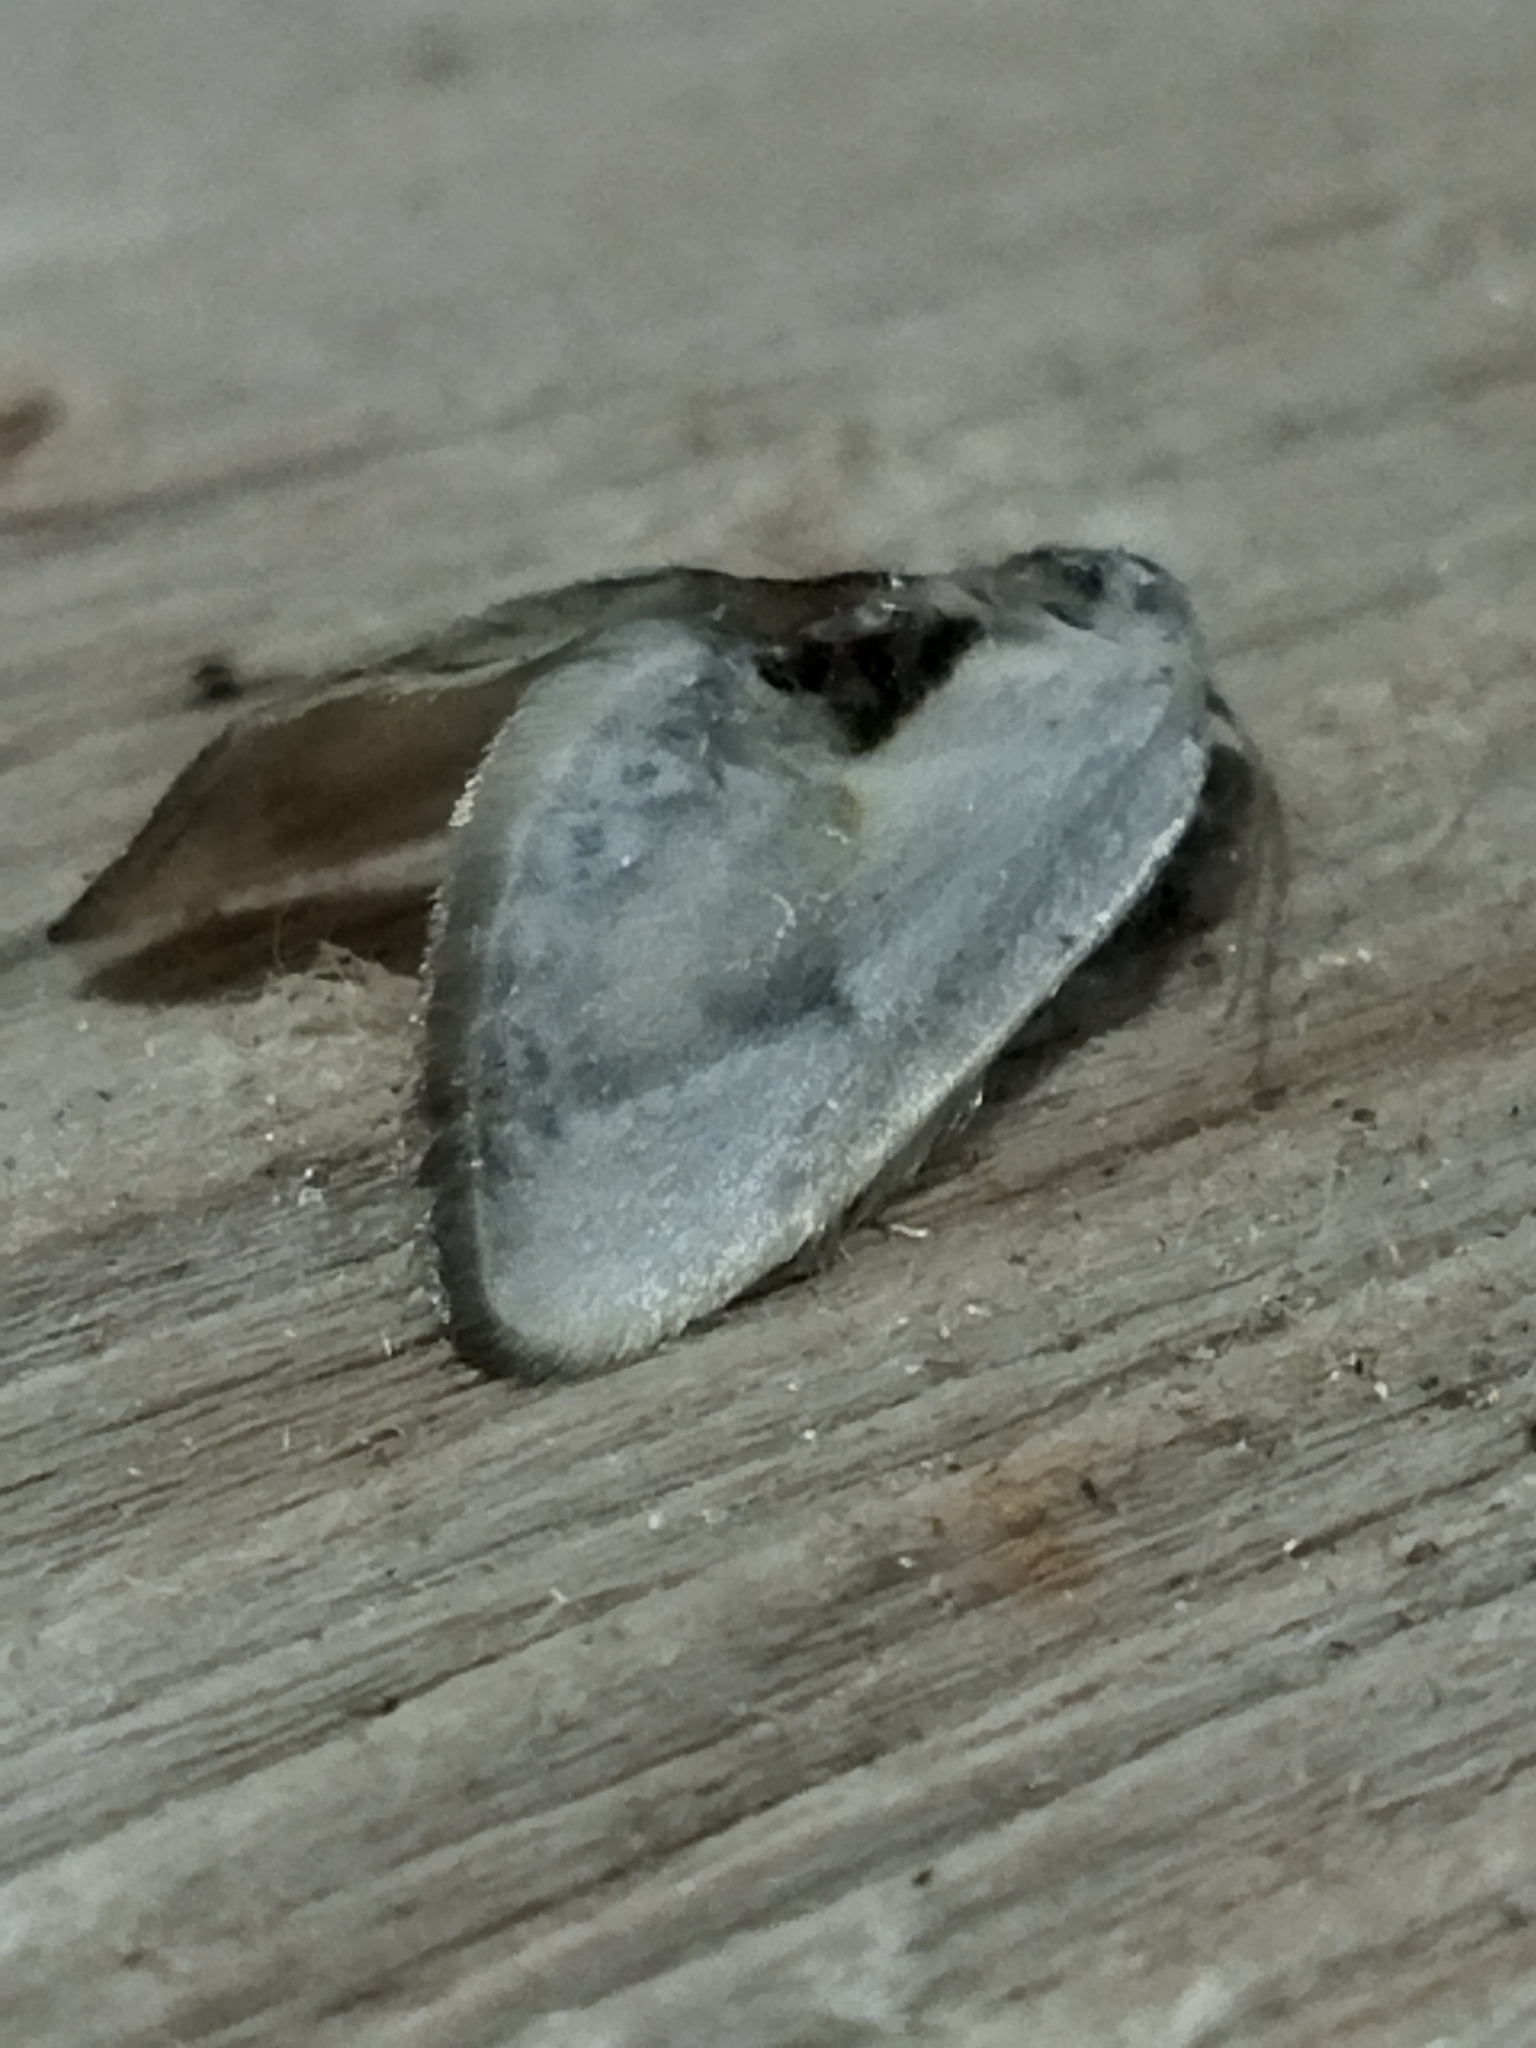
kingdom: Animalia
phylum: Arthropoda
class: Insecta
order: Lepidoptera
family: Drepanidae
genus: Cilix
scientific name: Cilix glaucata
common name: Chinese character
